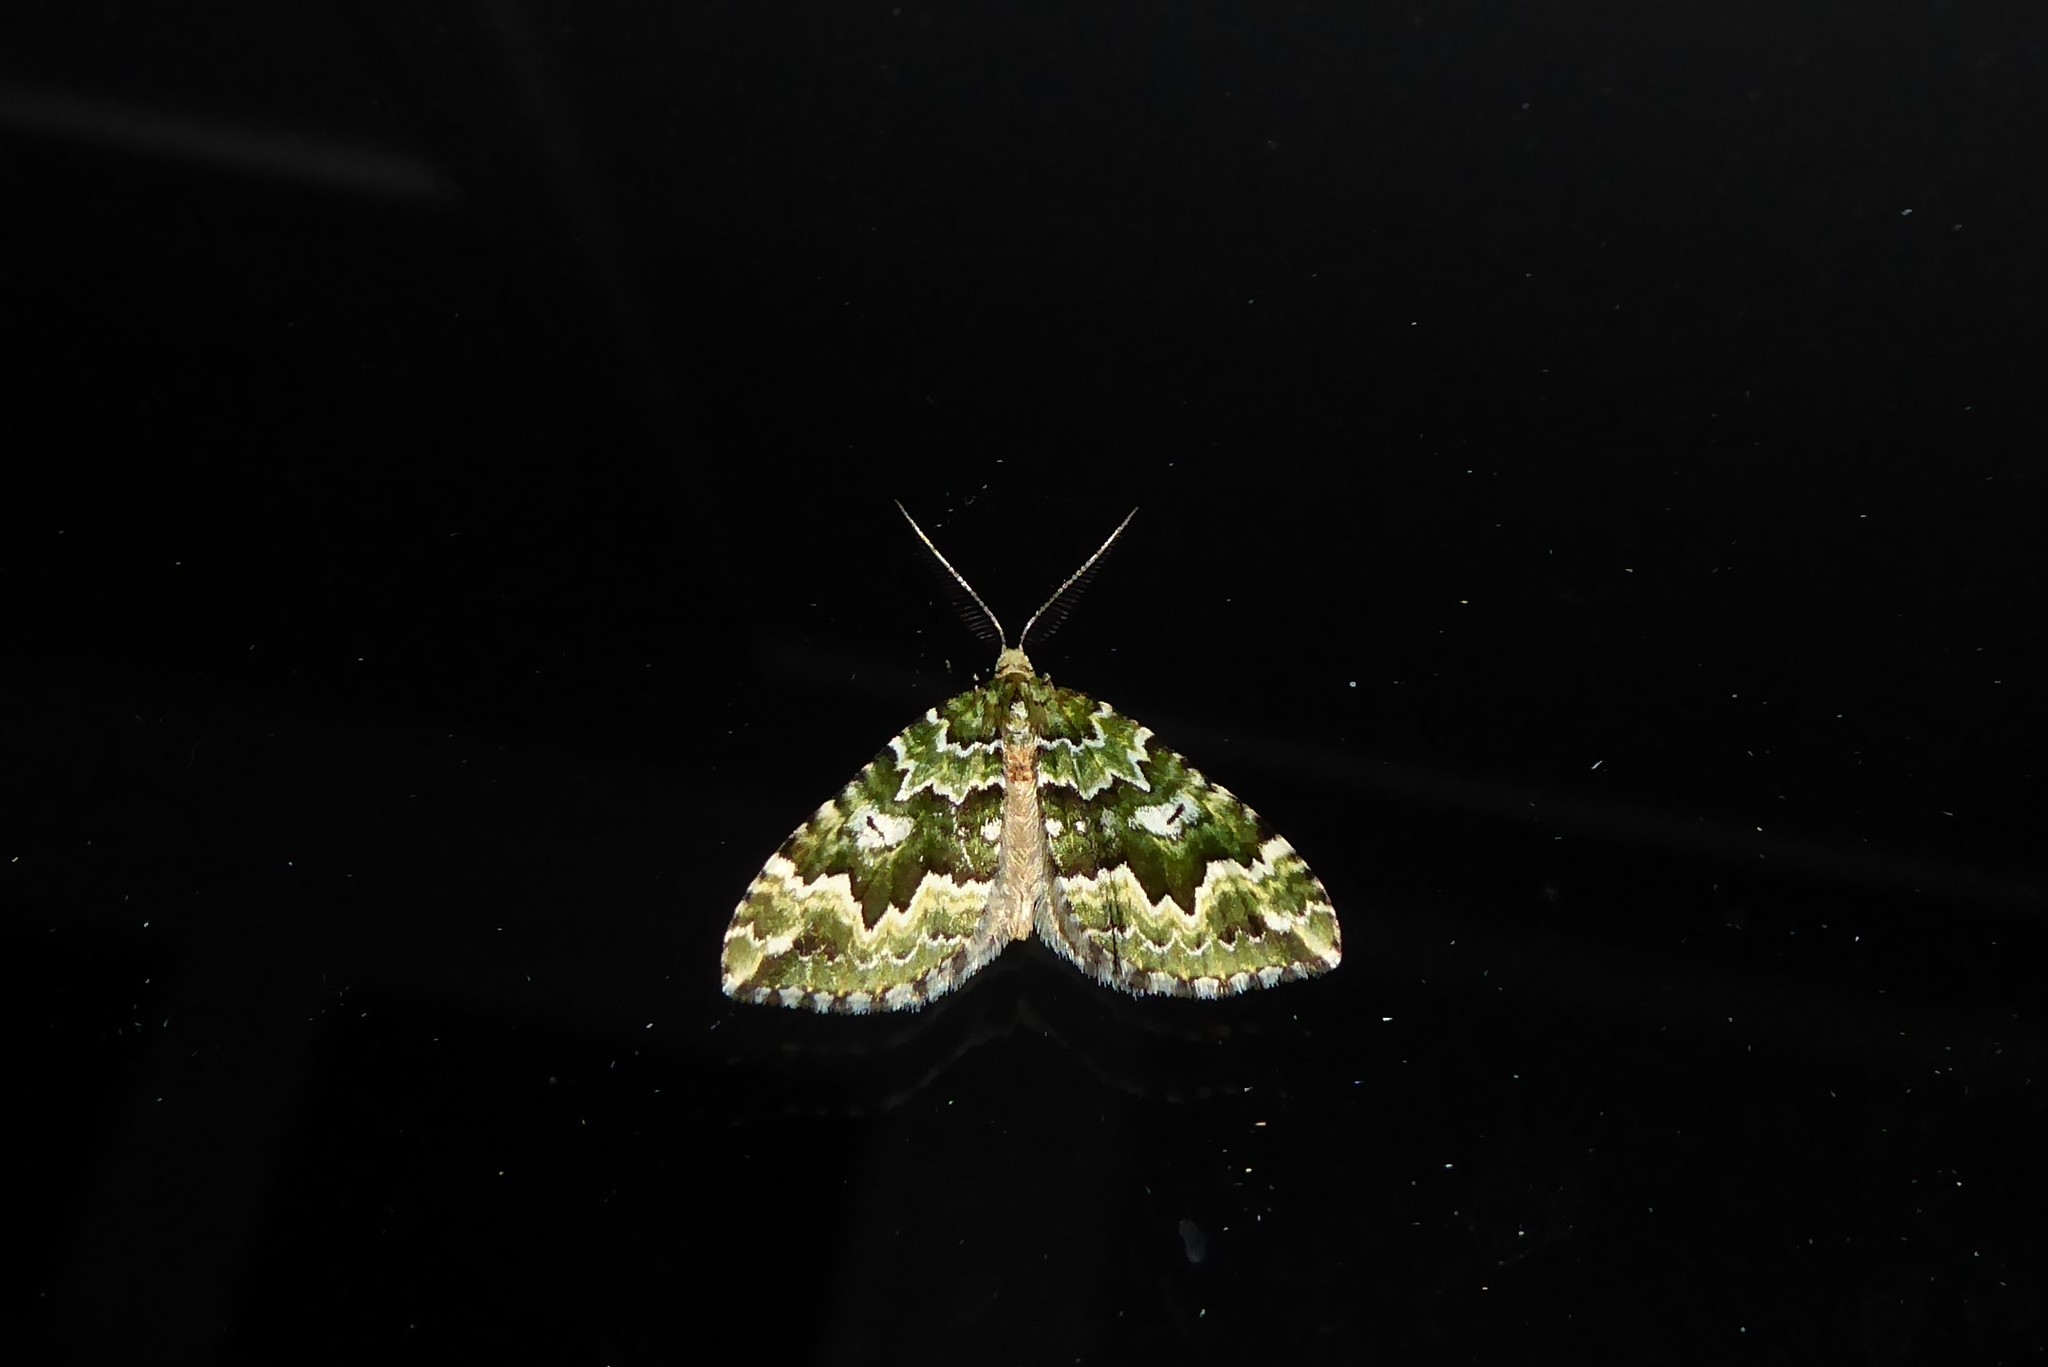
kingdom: Animalia
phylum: Arthropoda
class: Insecta
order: Lepidoptera
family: Geometridae
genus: Asaphodes
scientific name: Asaphodes beata
